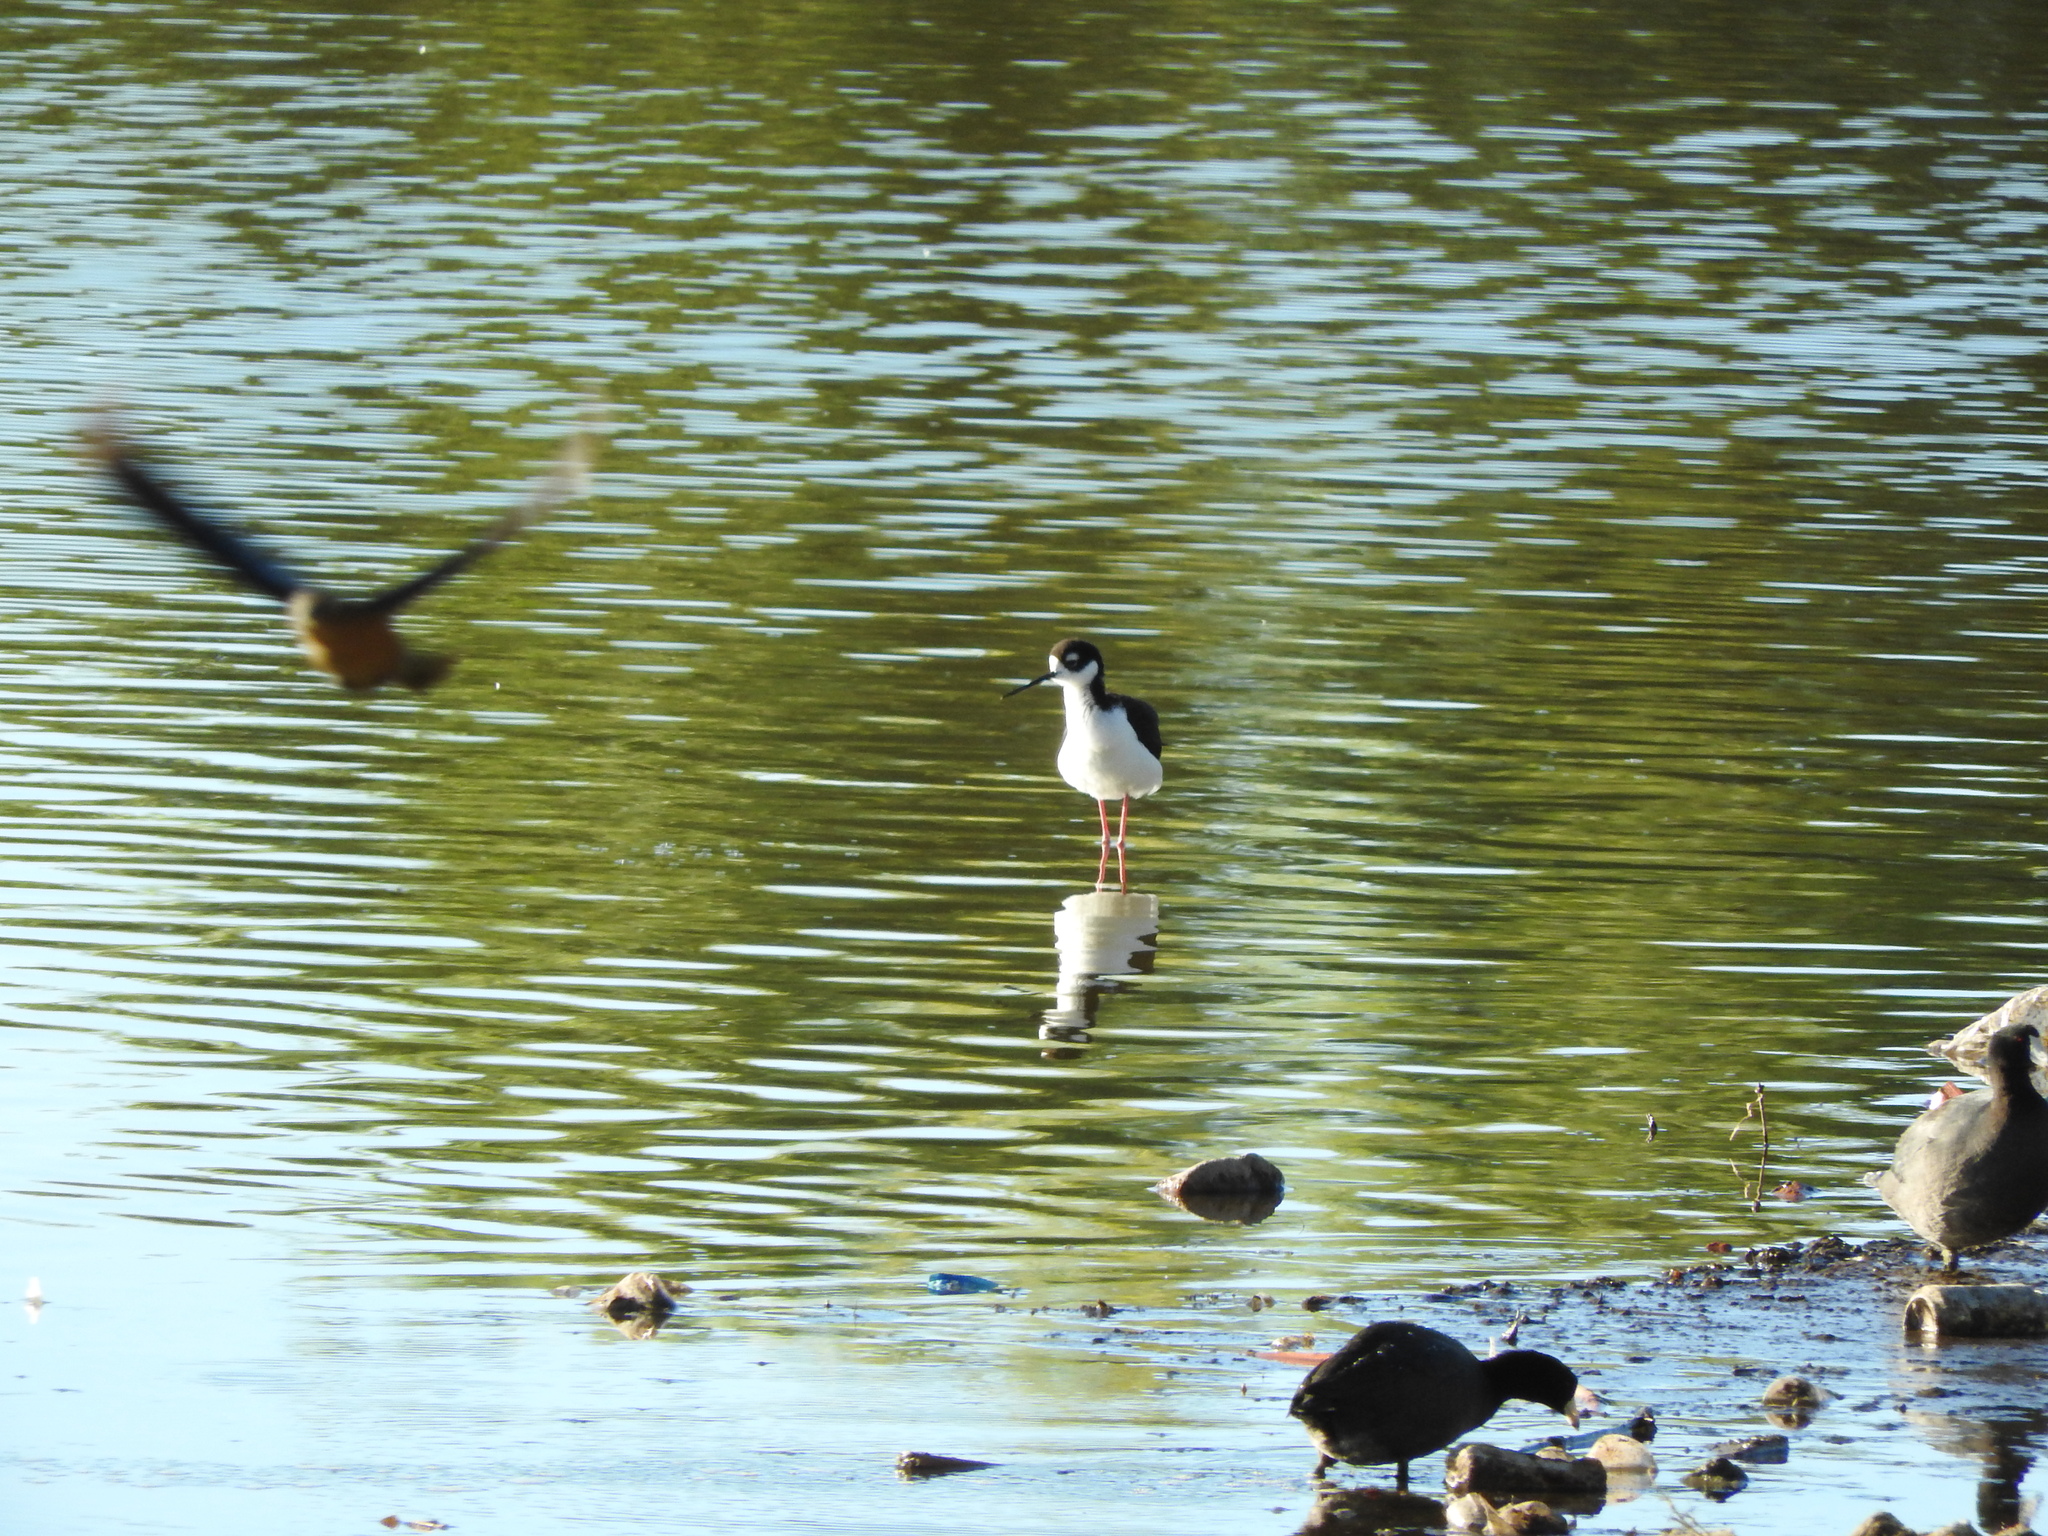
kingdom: Animalia
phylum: Chordata
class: Aves
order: Charadriiformes
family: Recurvirostridae
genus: Himantopus
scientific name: Himantopus mexicanus
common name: Black-necked stilt
